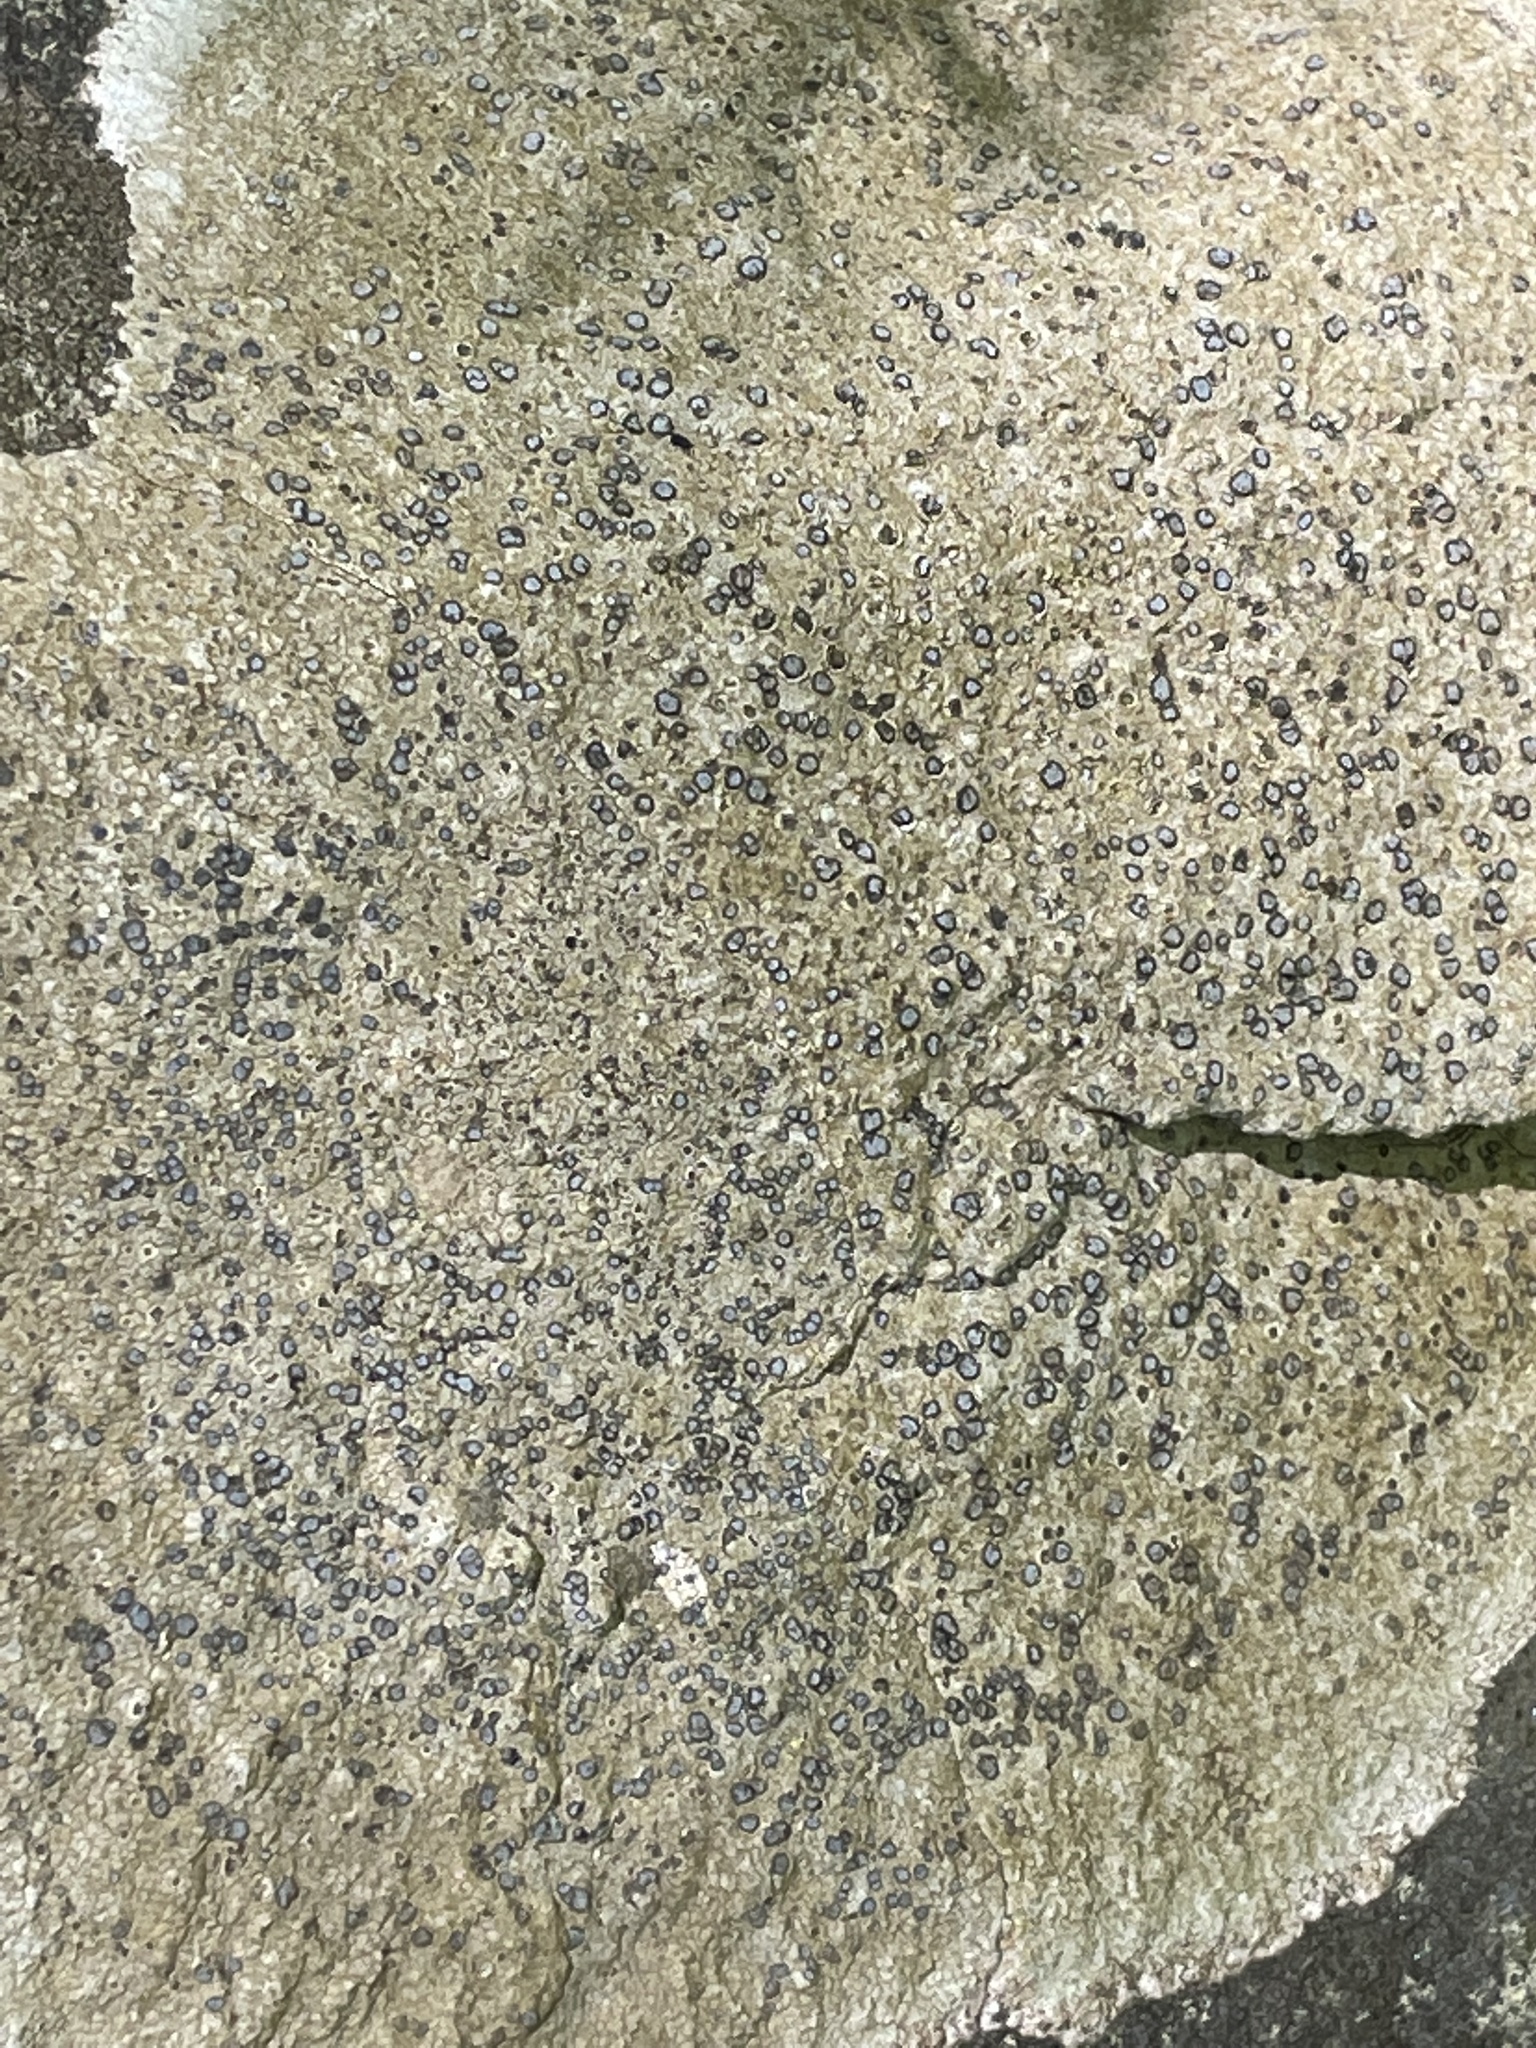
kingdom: Fungi
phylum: Ascomycota
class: Lecanoromycetes
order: Lecideales
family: Lecideaceae
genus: Porpidia
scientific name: Porpidia albocaerulescens
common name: Smokey-eyed boulder lichen
